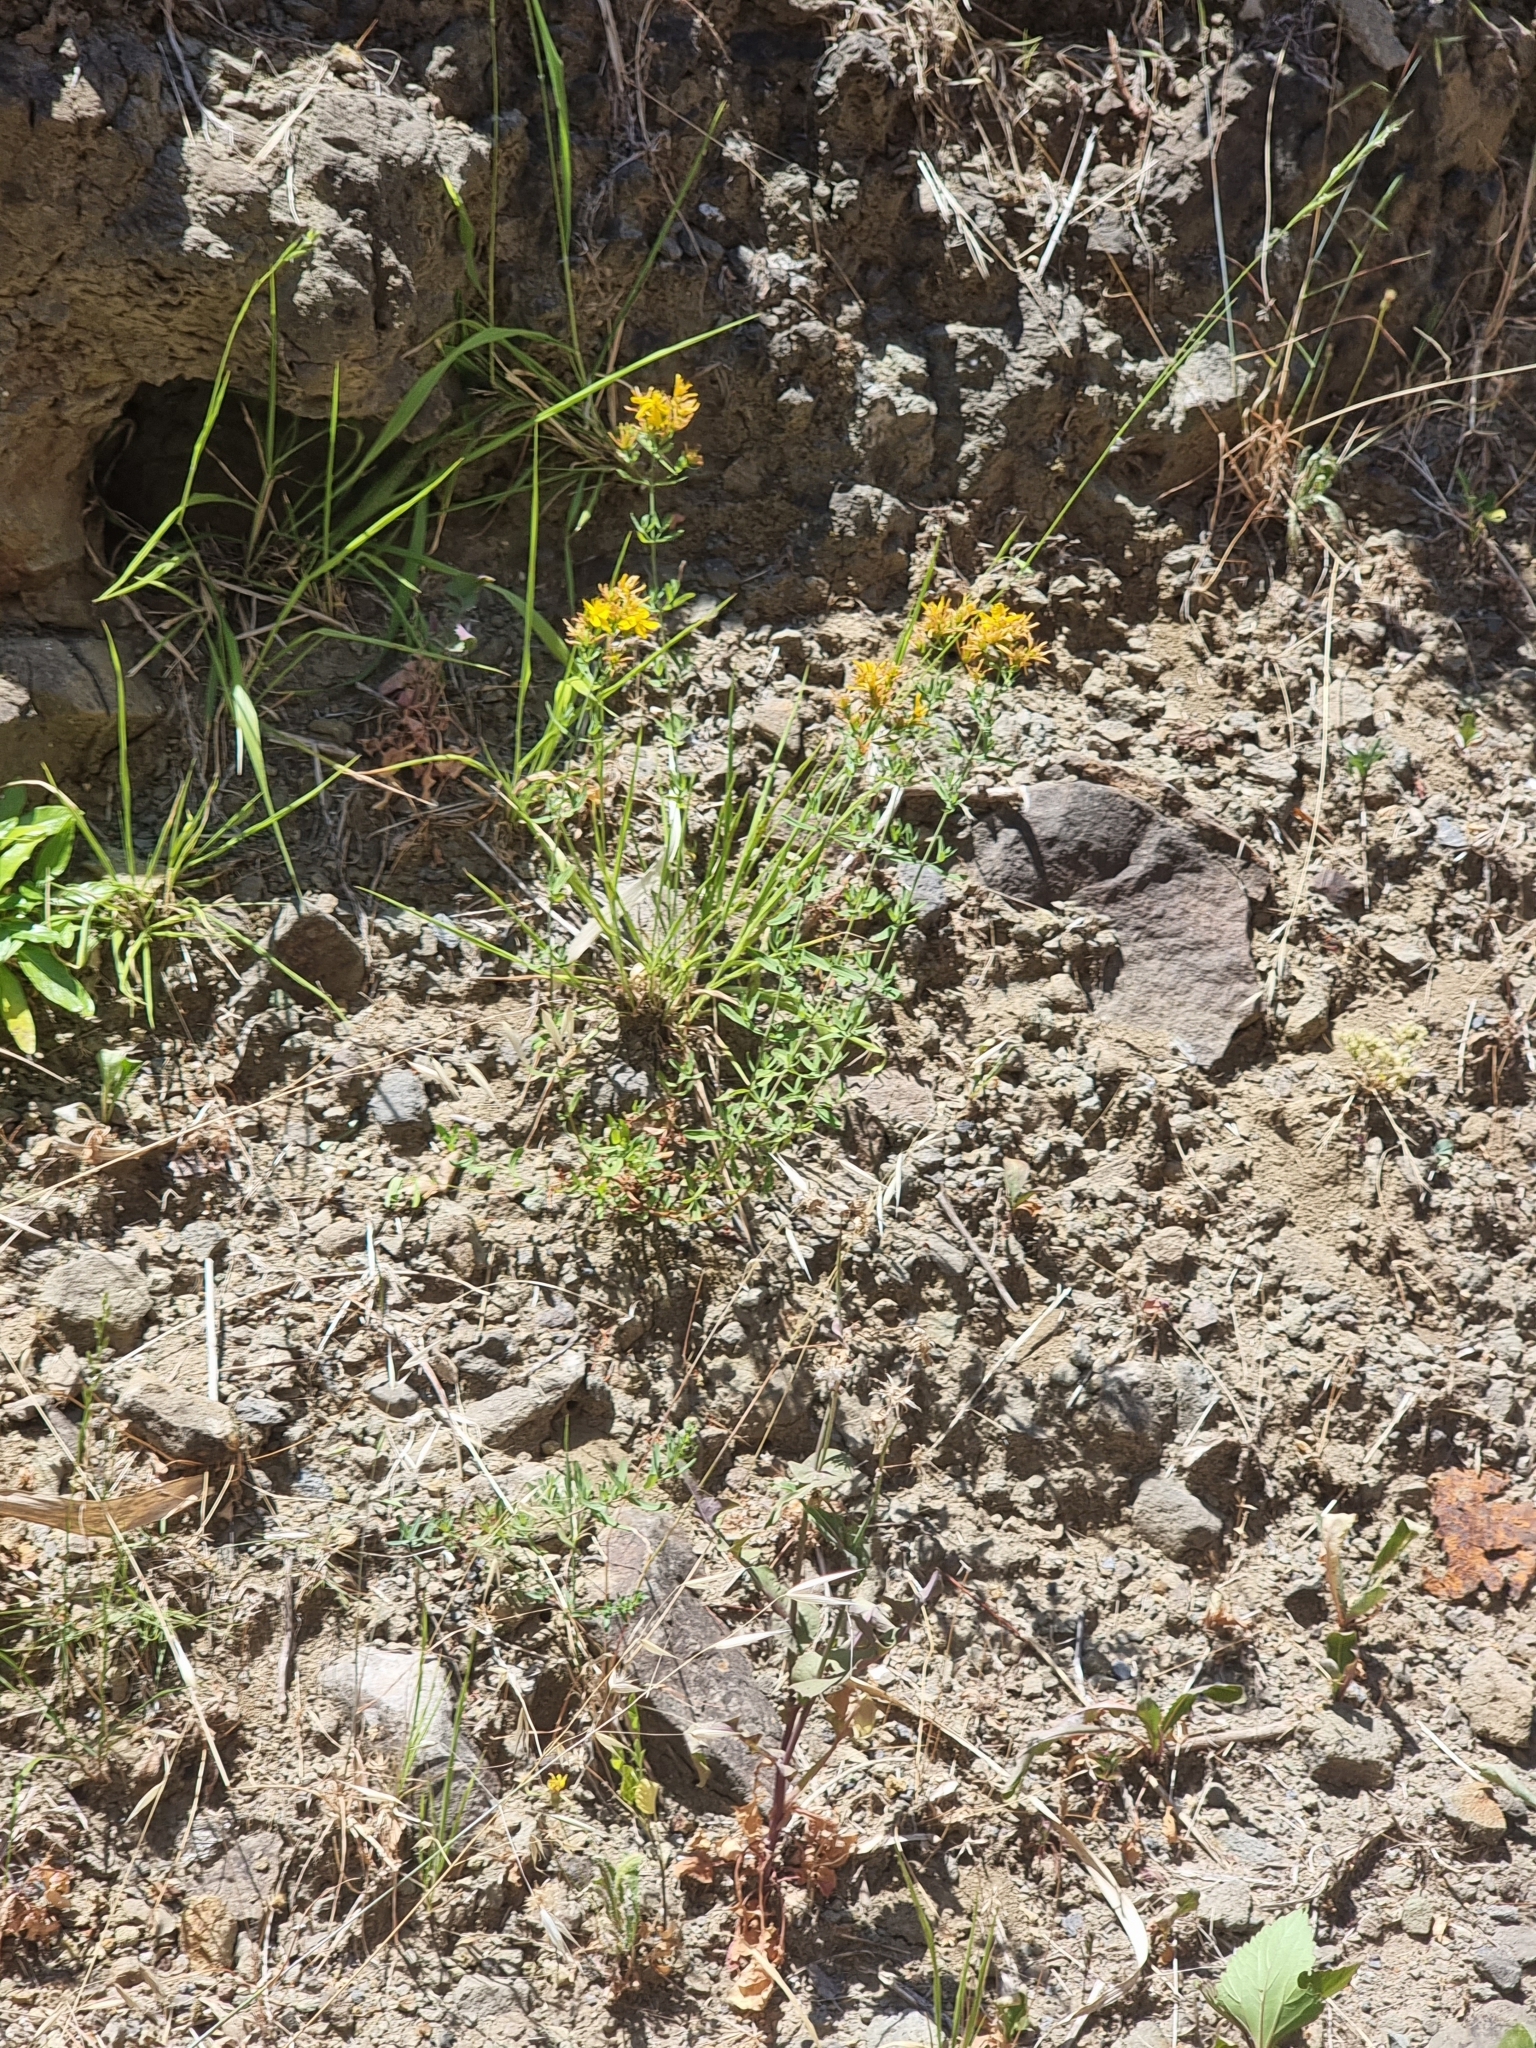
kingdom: Plantae
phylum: Tracheophyta
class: Magnoliopsida
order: Malpighiales
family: Hypericaceae
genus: Hypericum
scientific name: Hypericum perforatum
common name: Common st. johnswort
